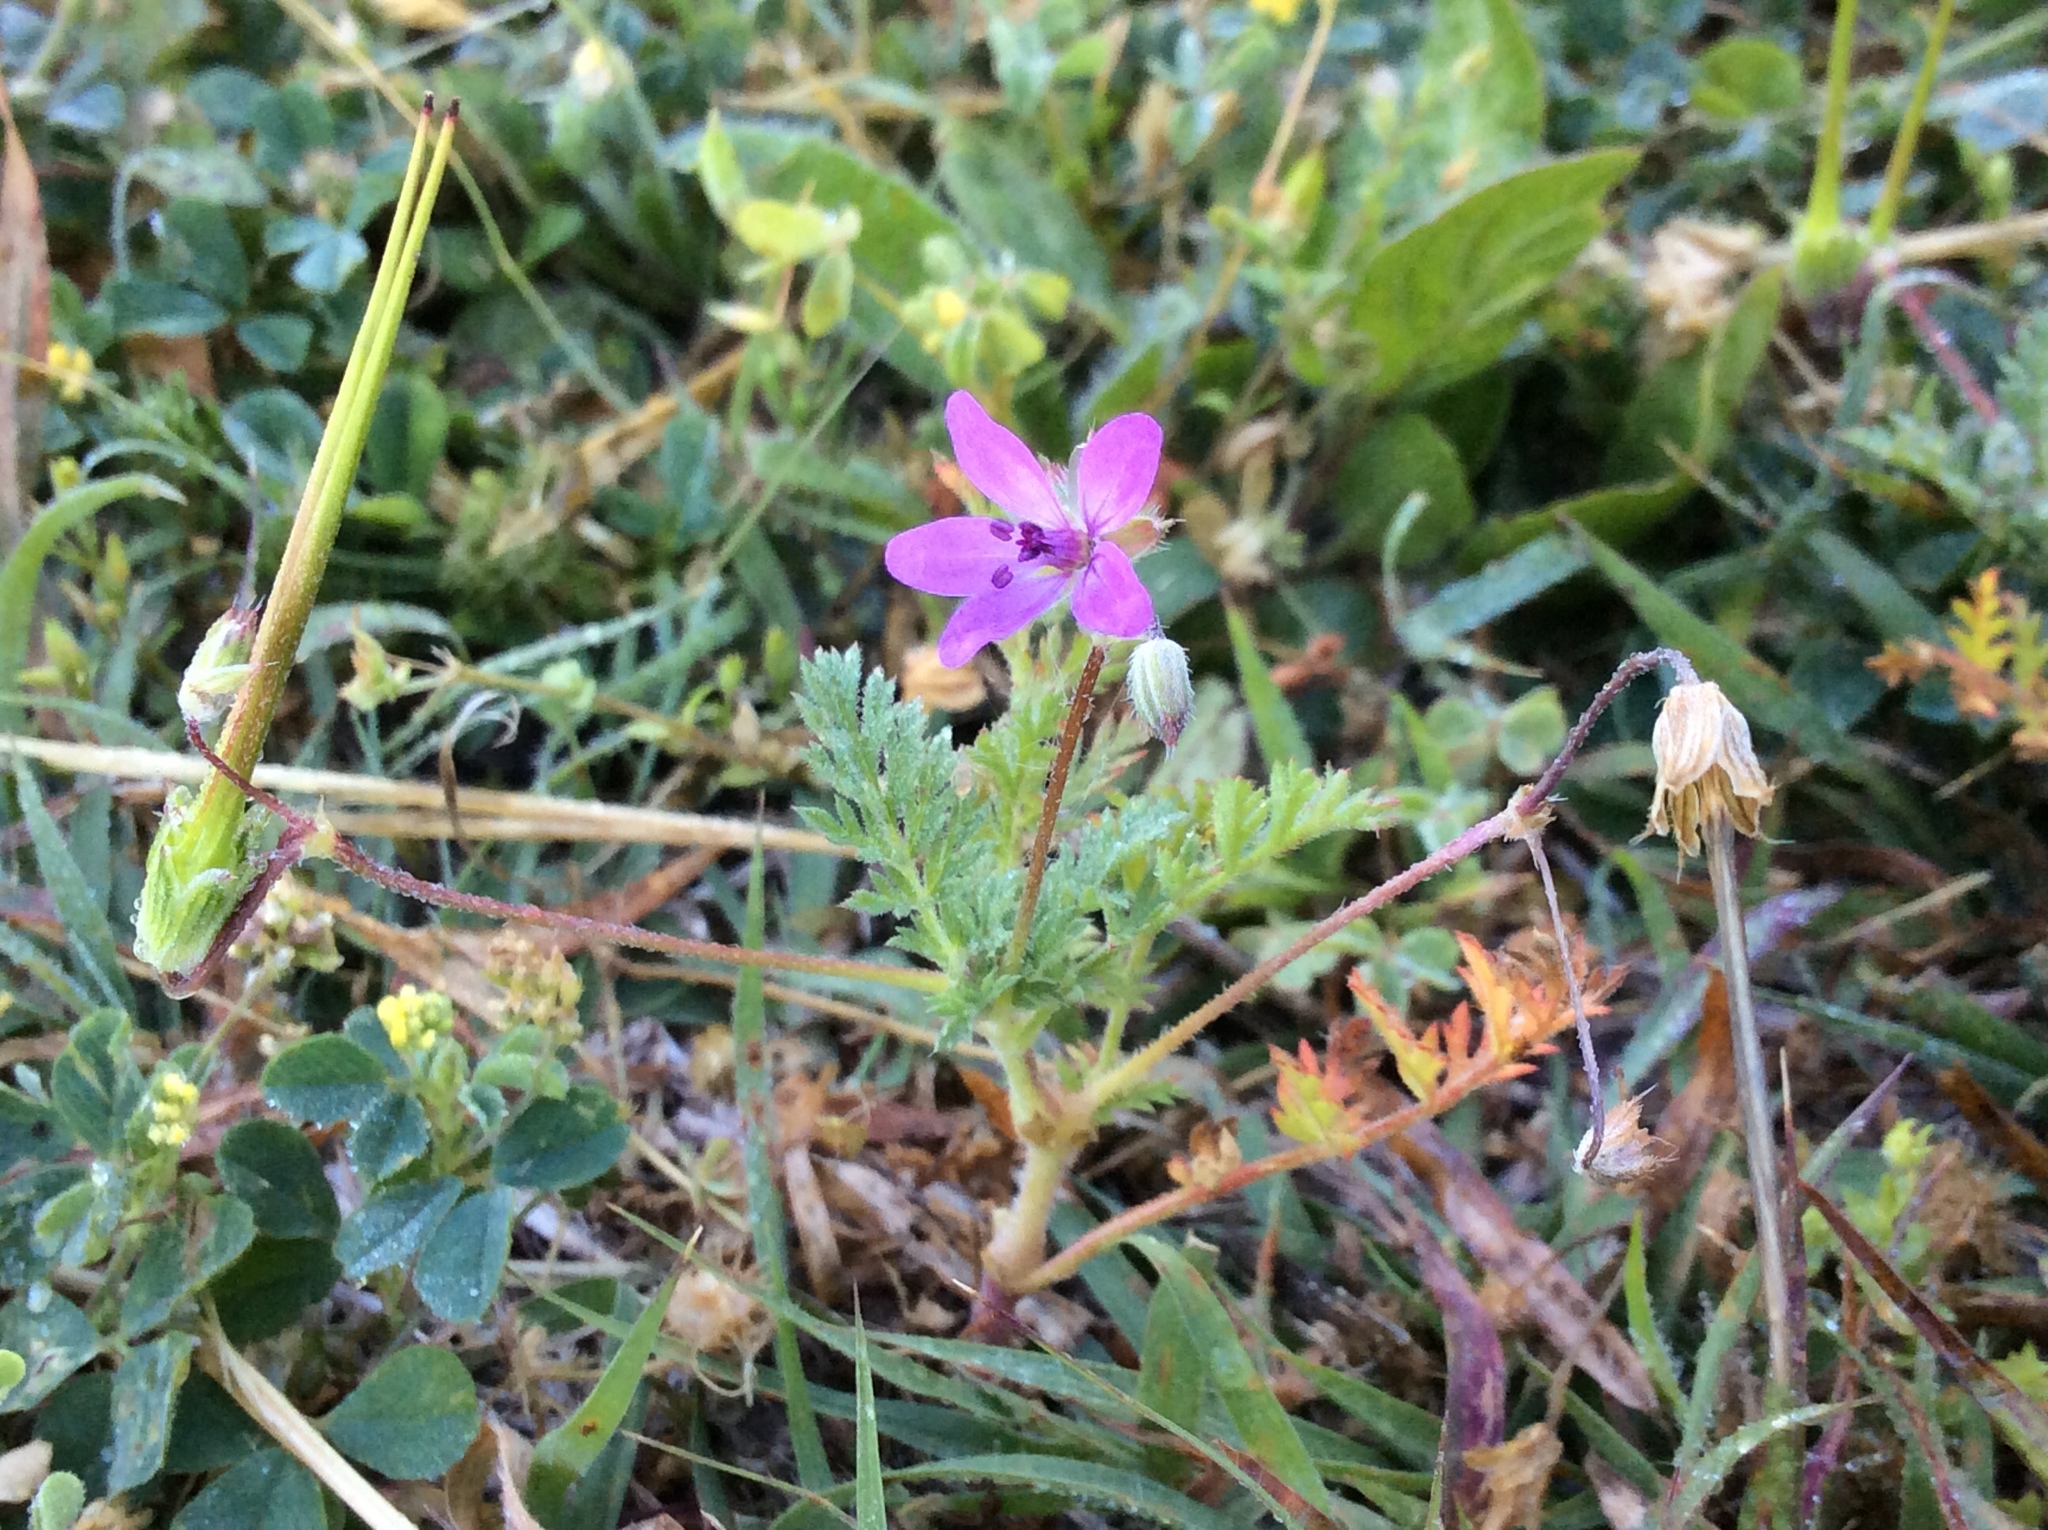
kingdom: Plantae
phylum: Tracheophyta
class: Magnoliopsida
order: Geraniales
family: Geraniaceae
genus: Erodium
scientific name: Erodium cicutarium
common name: Common stork's-bill
